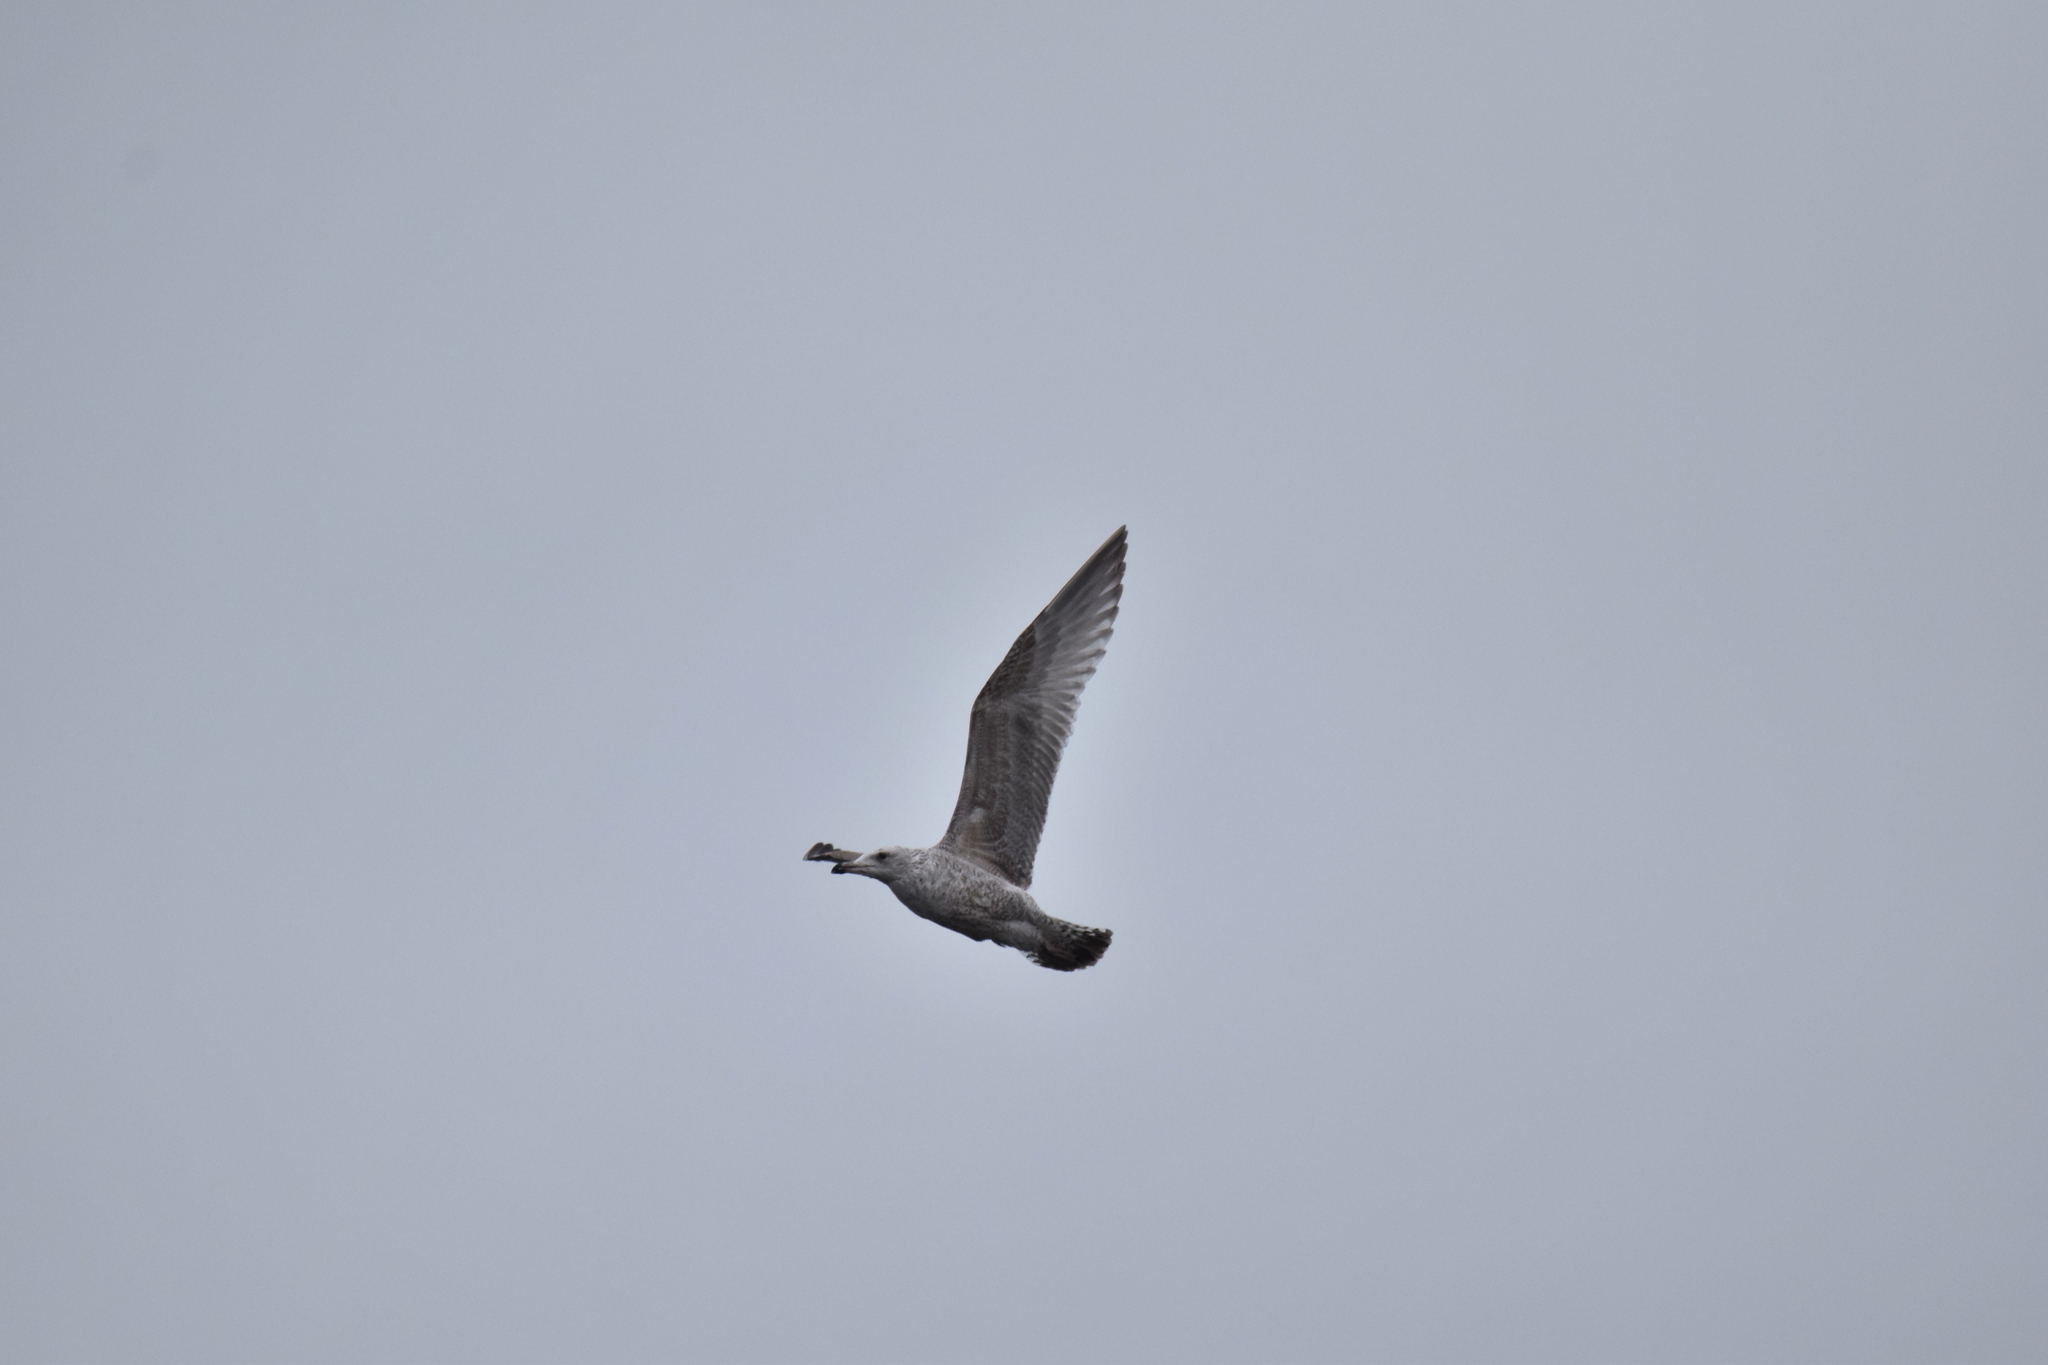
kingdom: Animalia
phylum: Chordata
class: Aves
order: Charadriiformes
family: Laridae
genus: Larus
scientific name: Larus argentatus
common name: Herring gull
